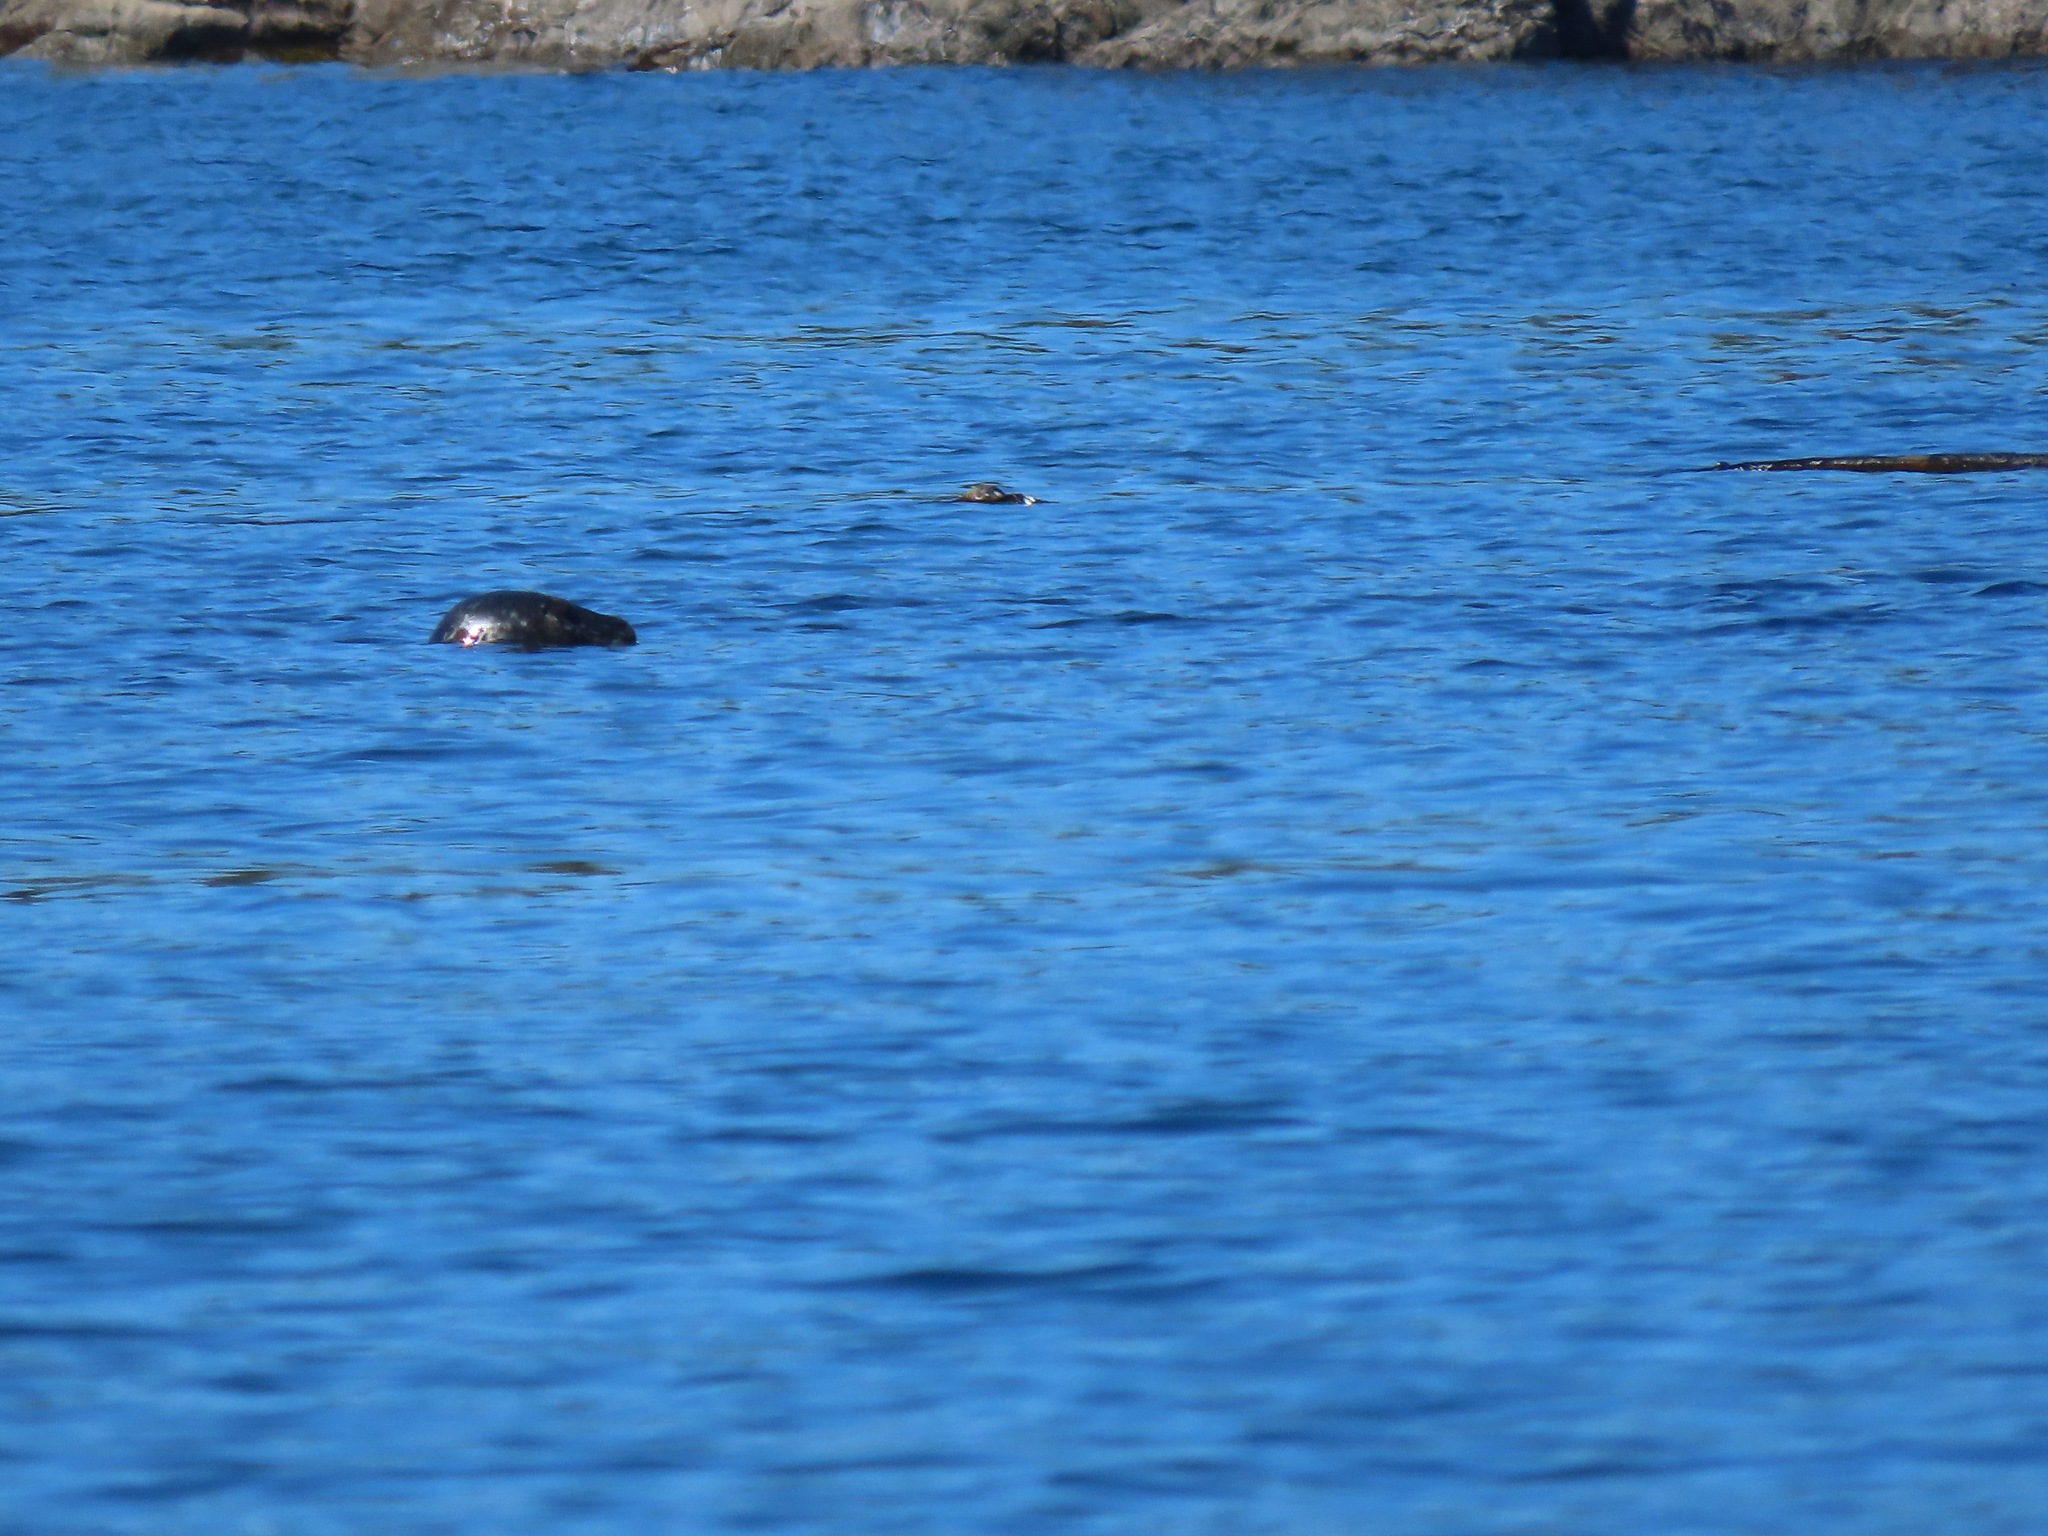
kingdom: Animalia
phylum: Chordata
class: Mammalia
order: Carnivora
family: Phocidae
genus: Phoca
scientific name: Phoca vitulina
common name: Harbor seal
